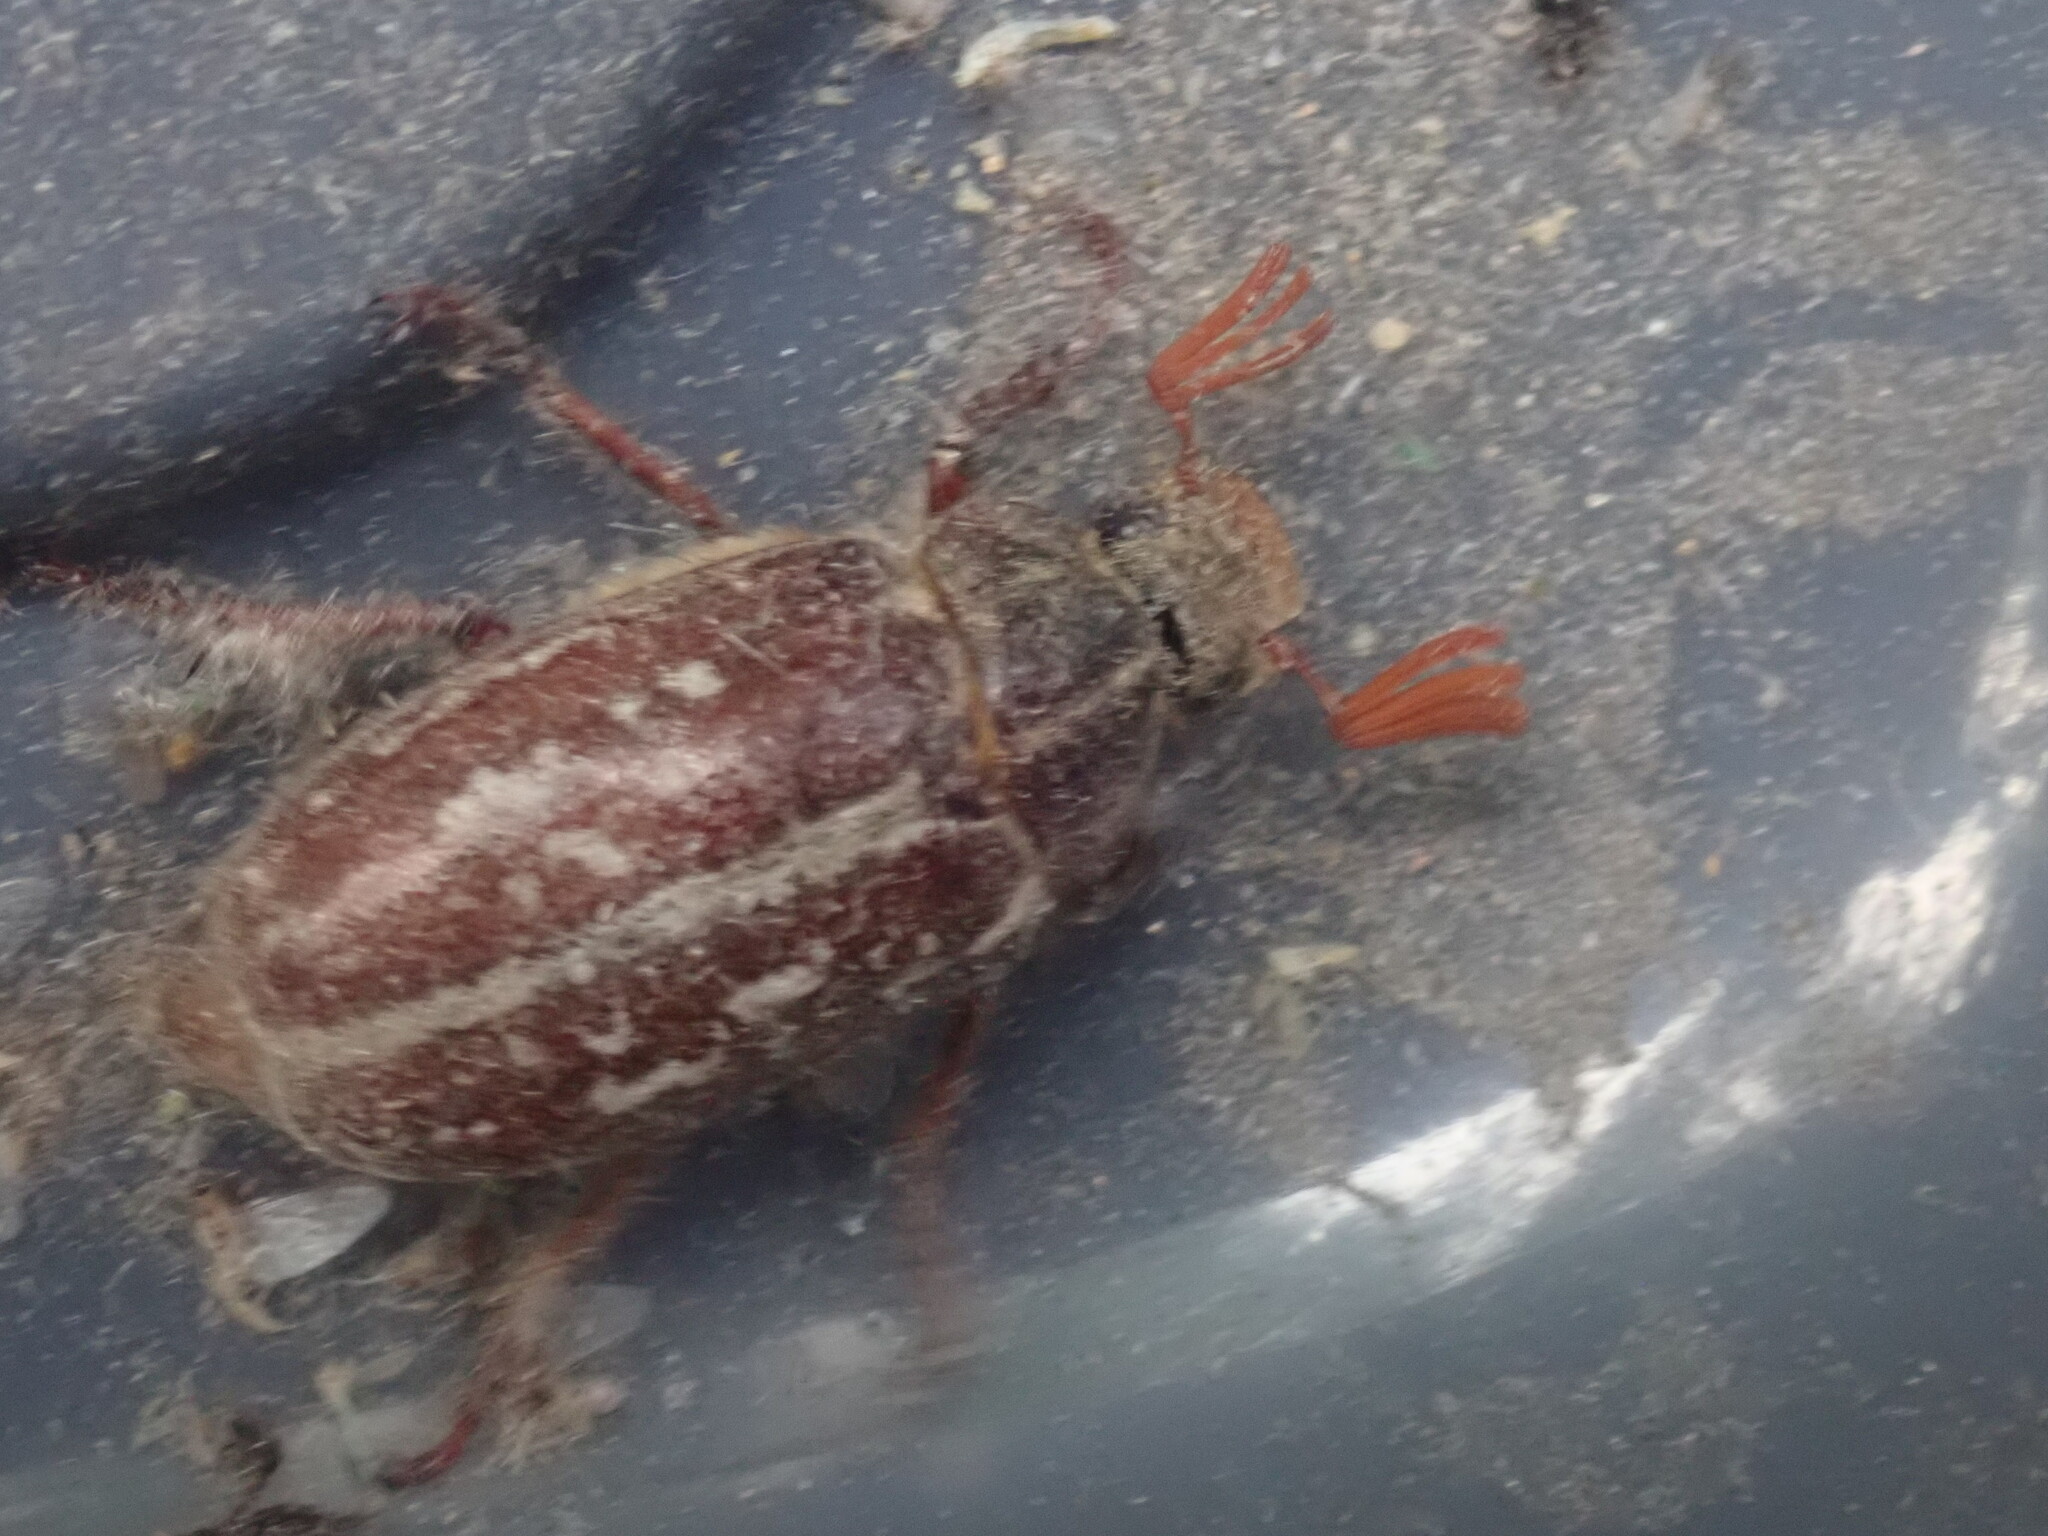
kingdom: Animalia
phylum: Arthropoda
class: Insecta
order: Coleoptera
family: Scarabaeidae
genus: Polyphylla
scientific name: Polyphylla variolosa
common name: Variegated june beetle
